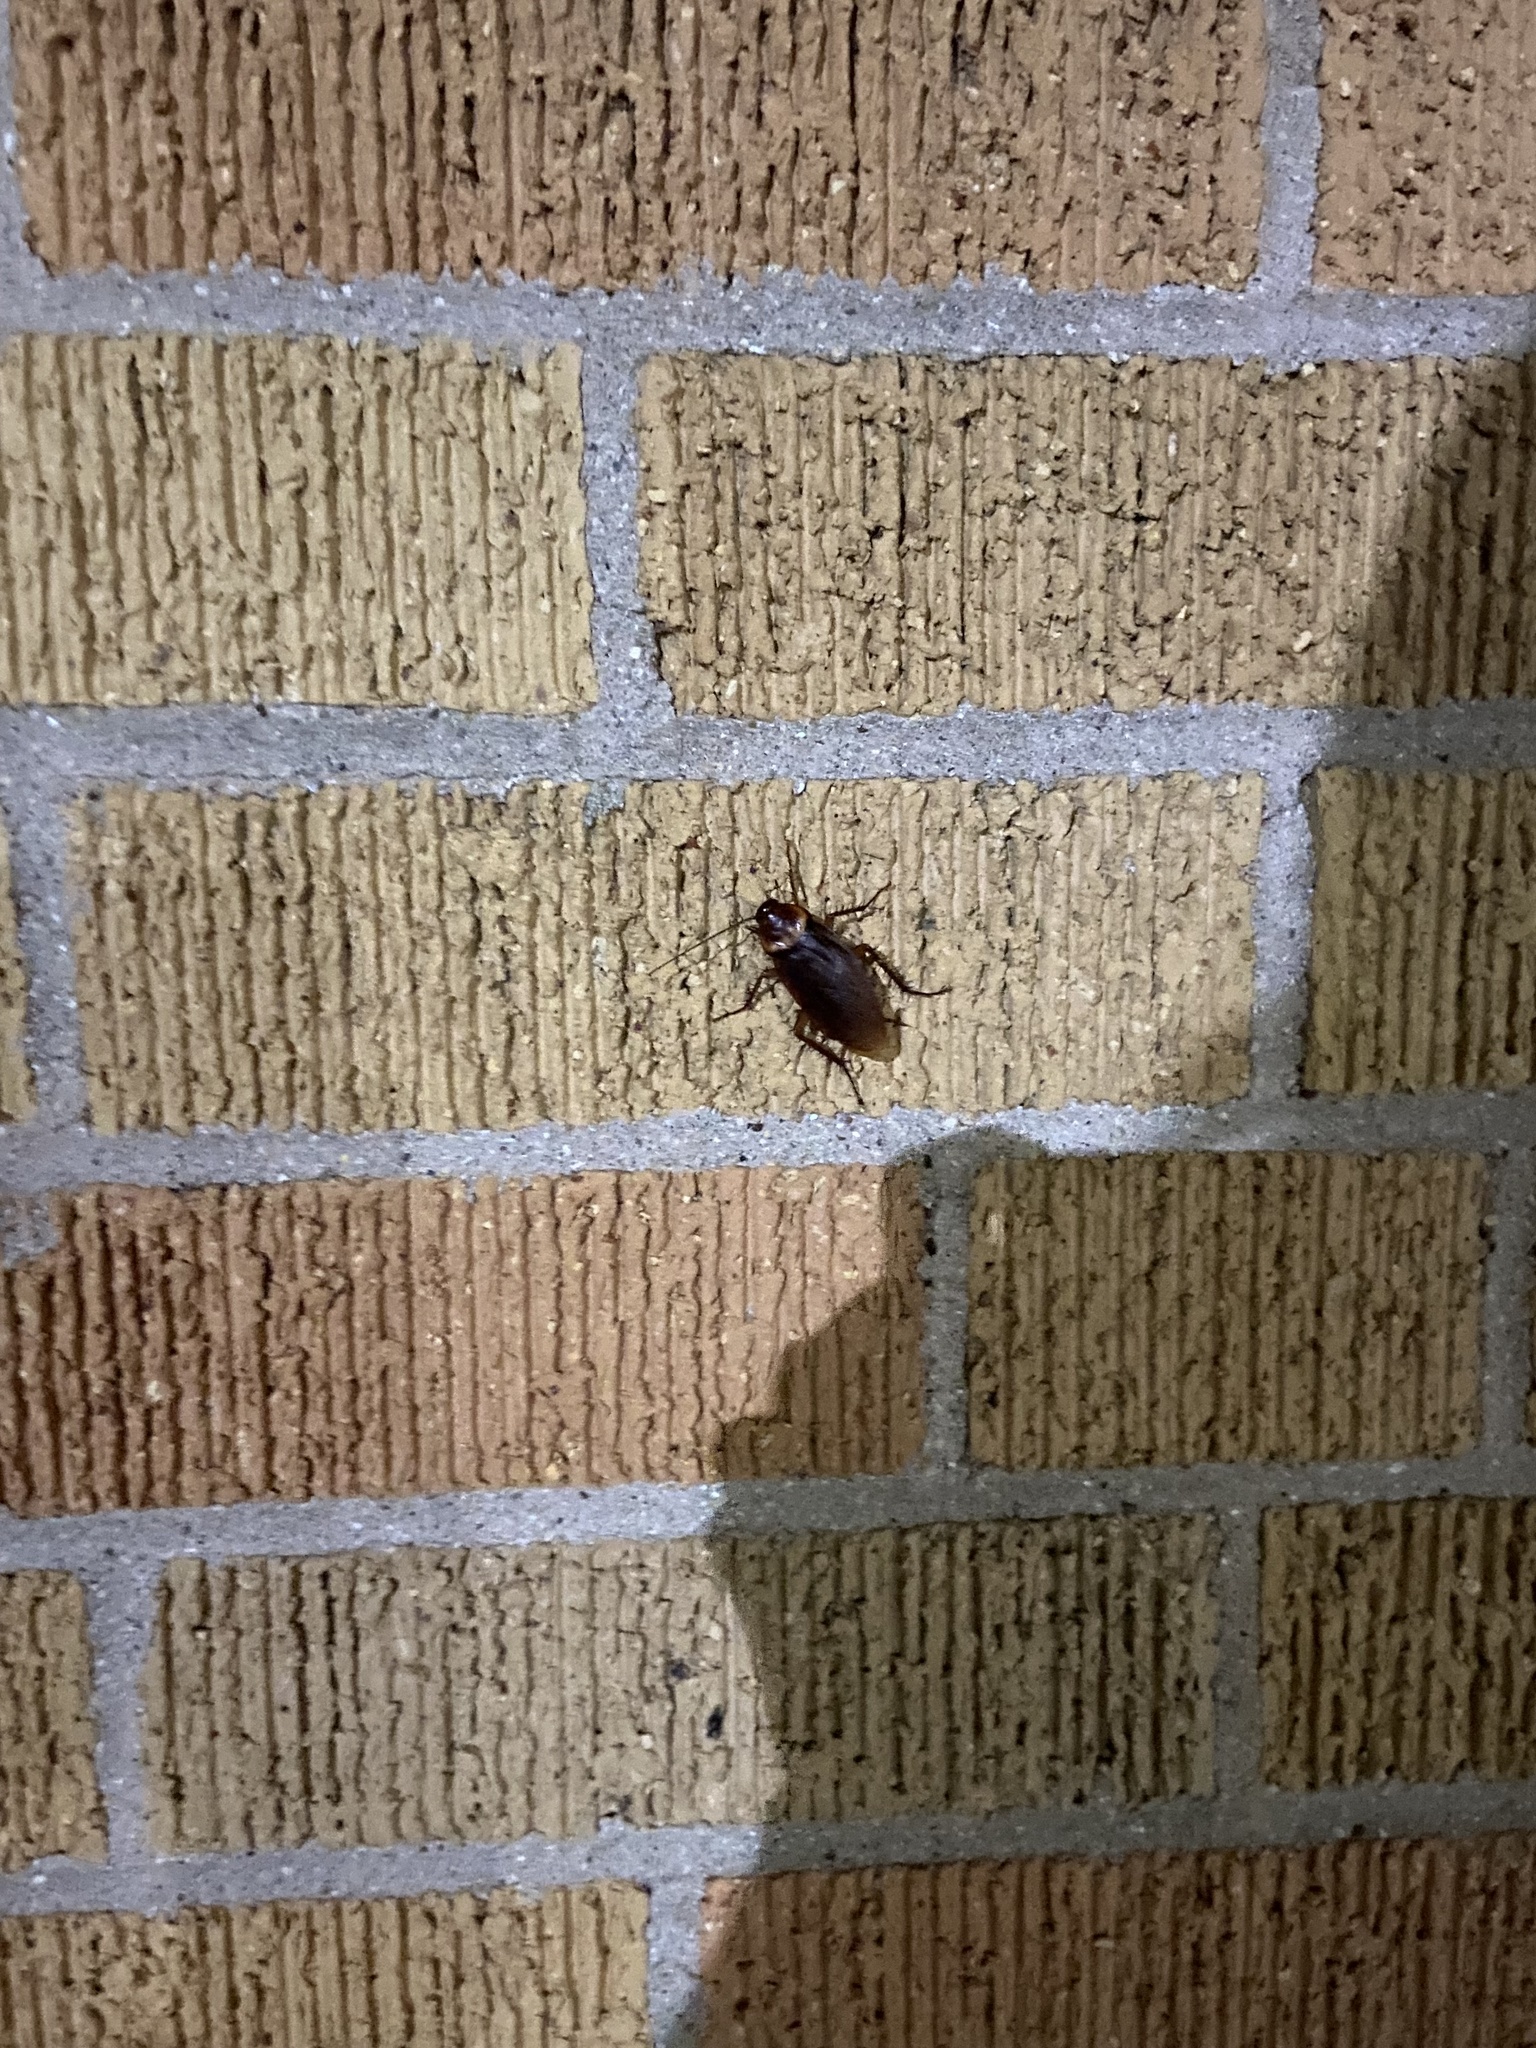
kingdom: Animalia
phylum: Arthropoda
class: Insecta
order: Blattodea
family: Blattidae
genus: Periplaneta
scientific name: Periplaneta americana
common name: American cockroach
